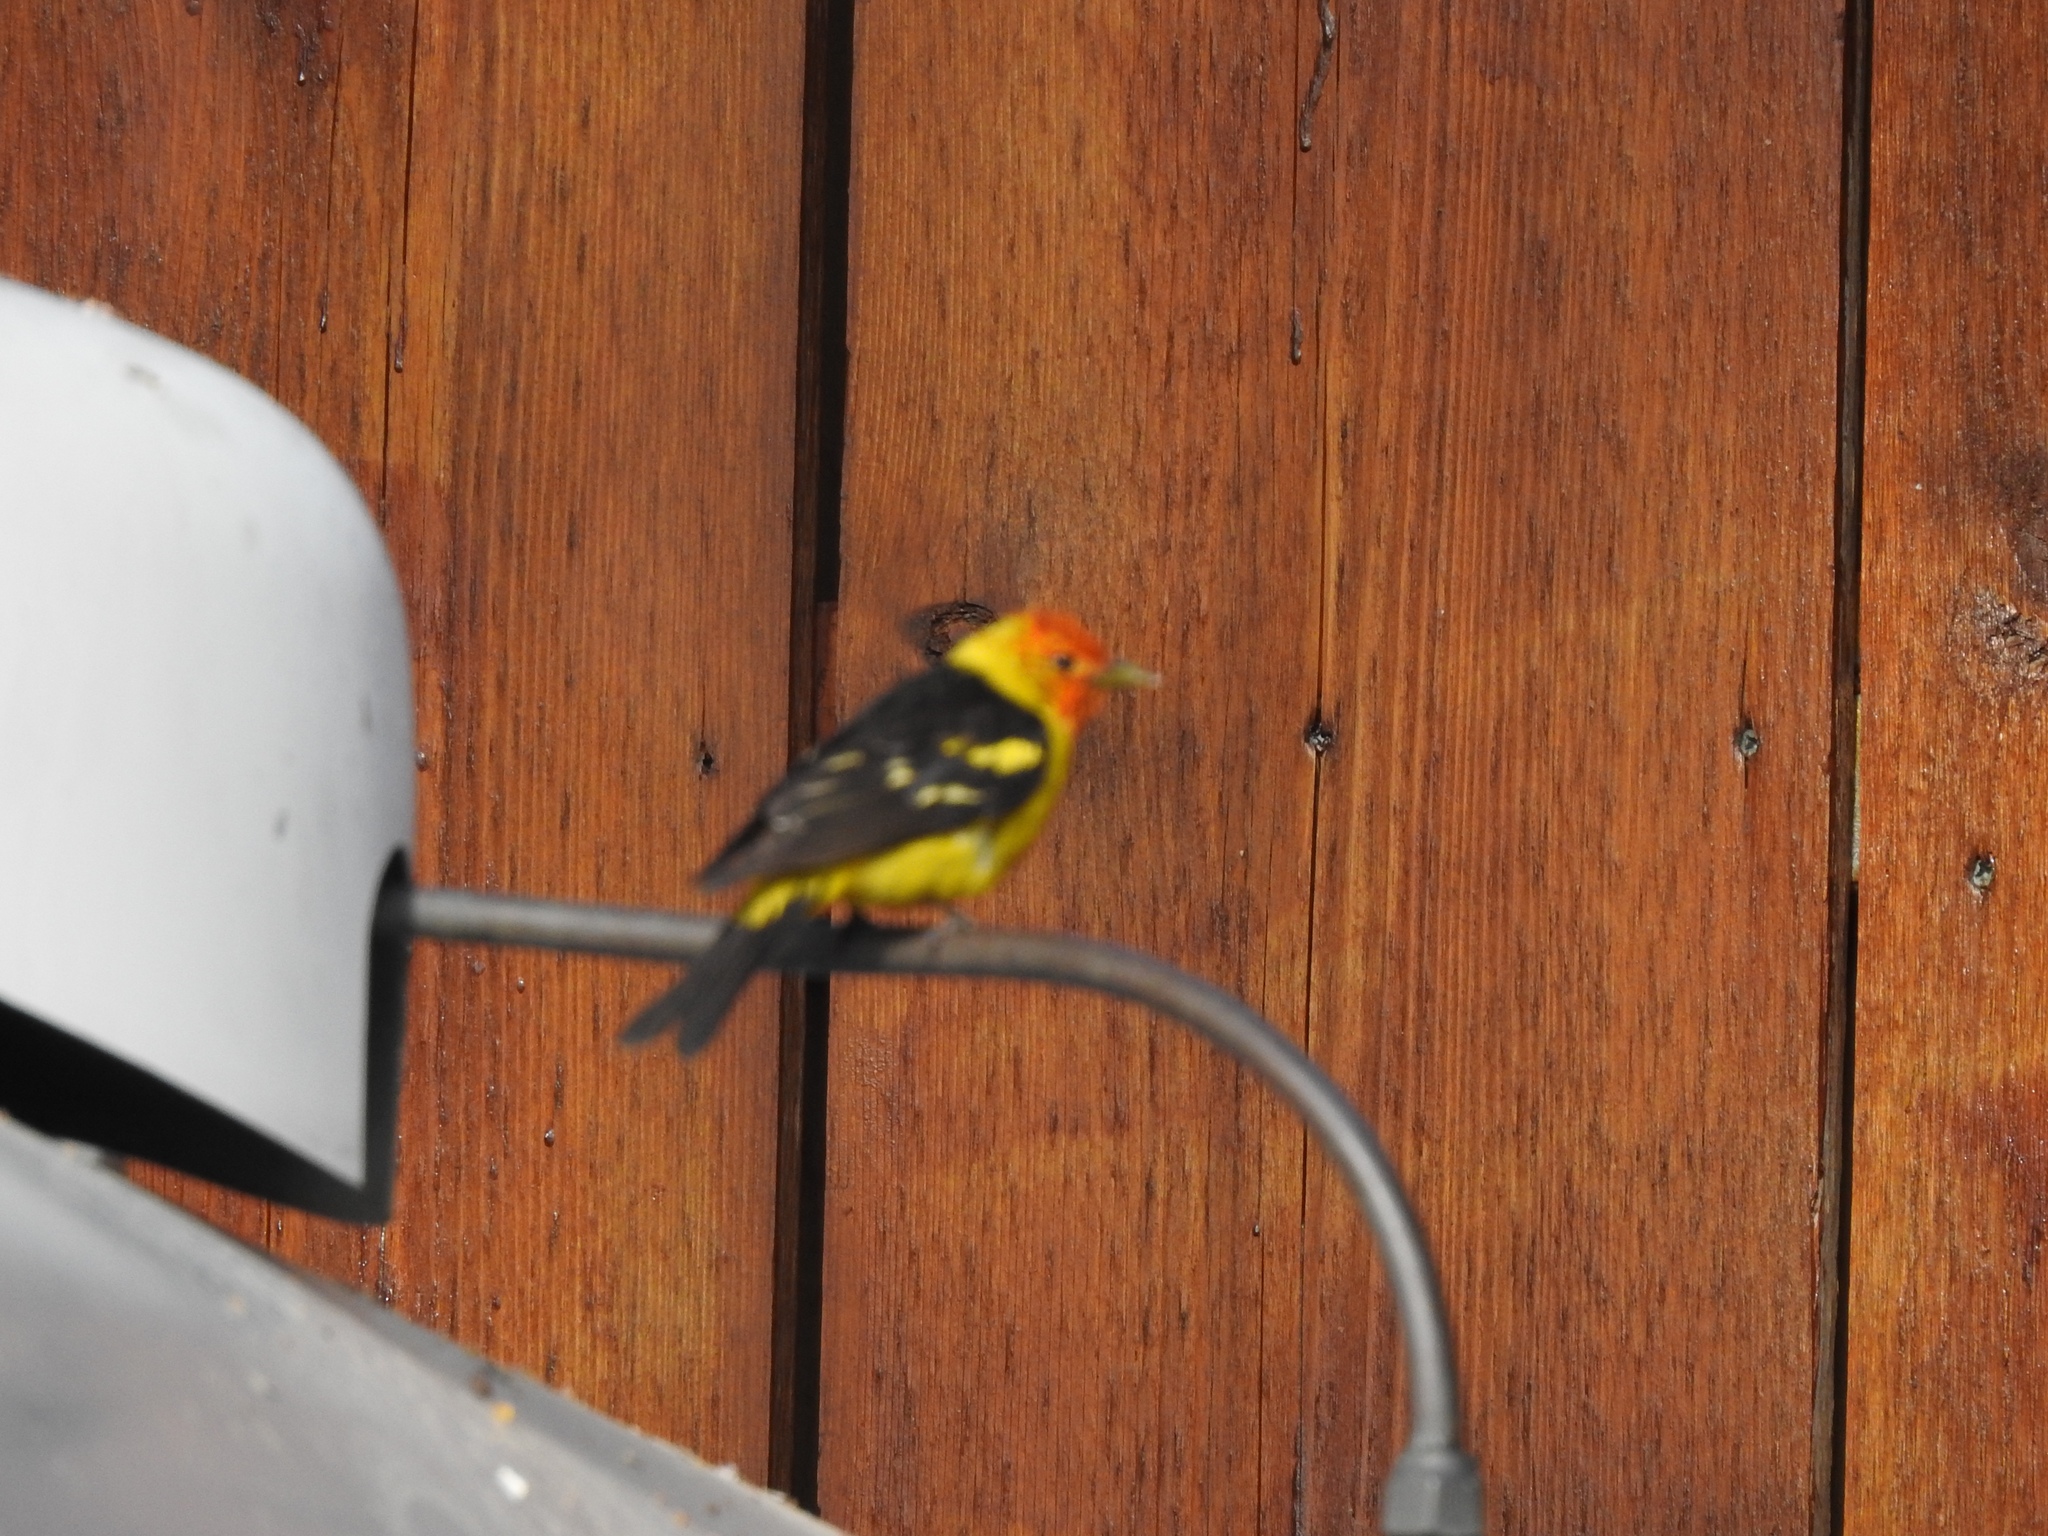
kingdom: Animalia
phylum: Chordata
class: Aves
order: Passeriformes
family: Cardinalidae
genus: Piranga
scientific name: Piranga ludoviciana
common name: Western tanager
